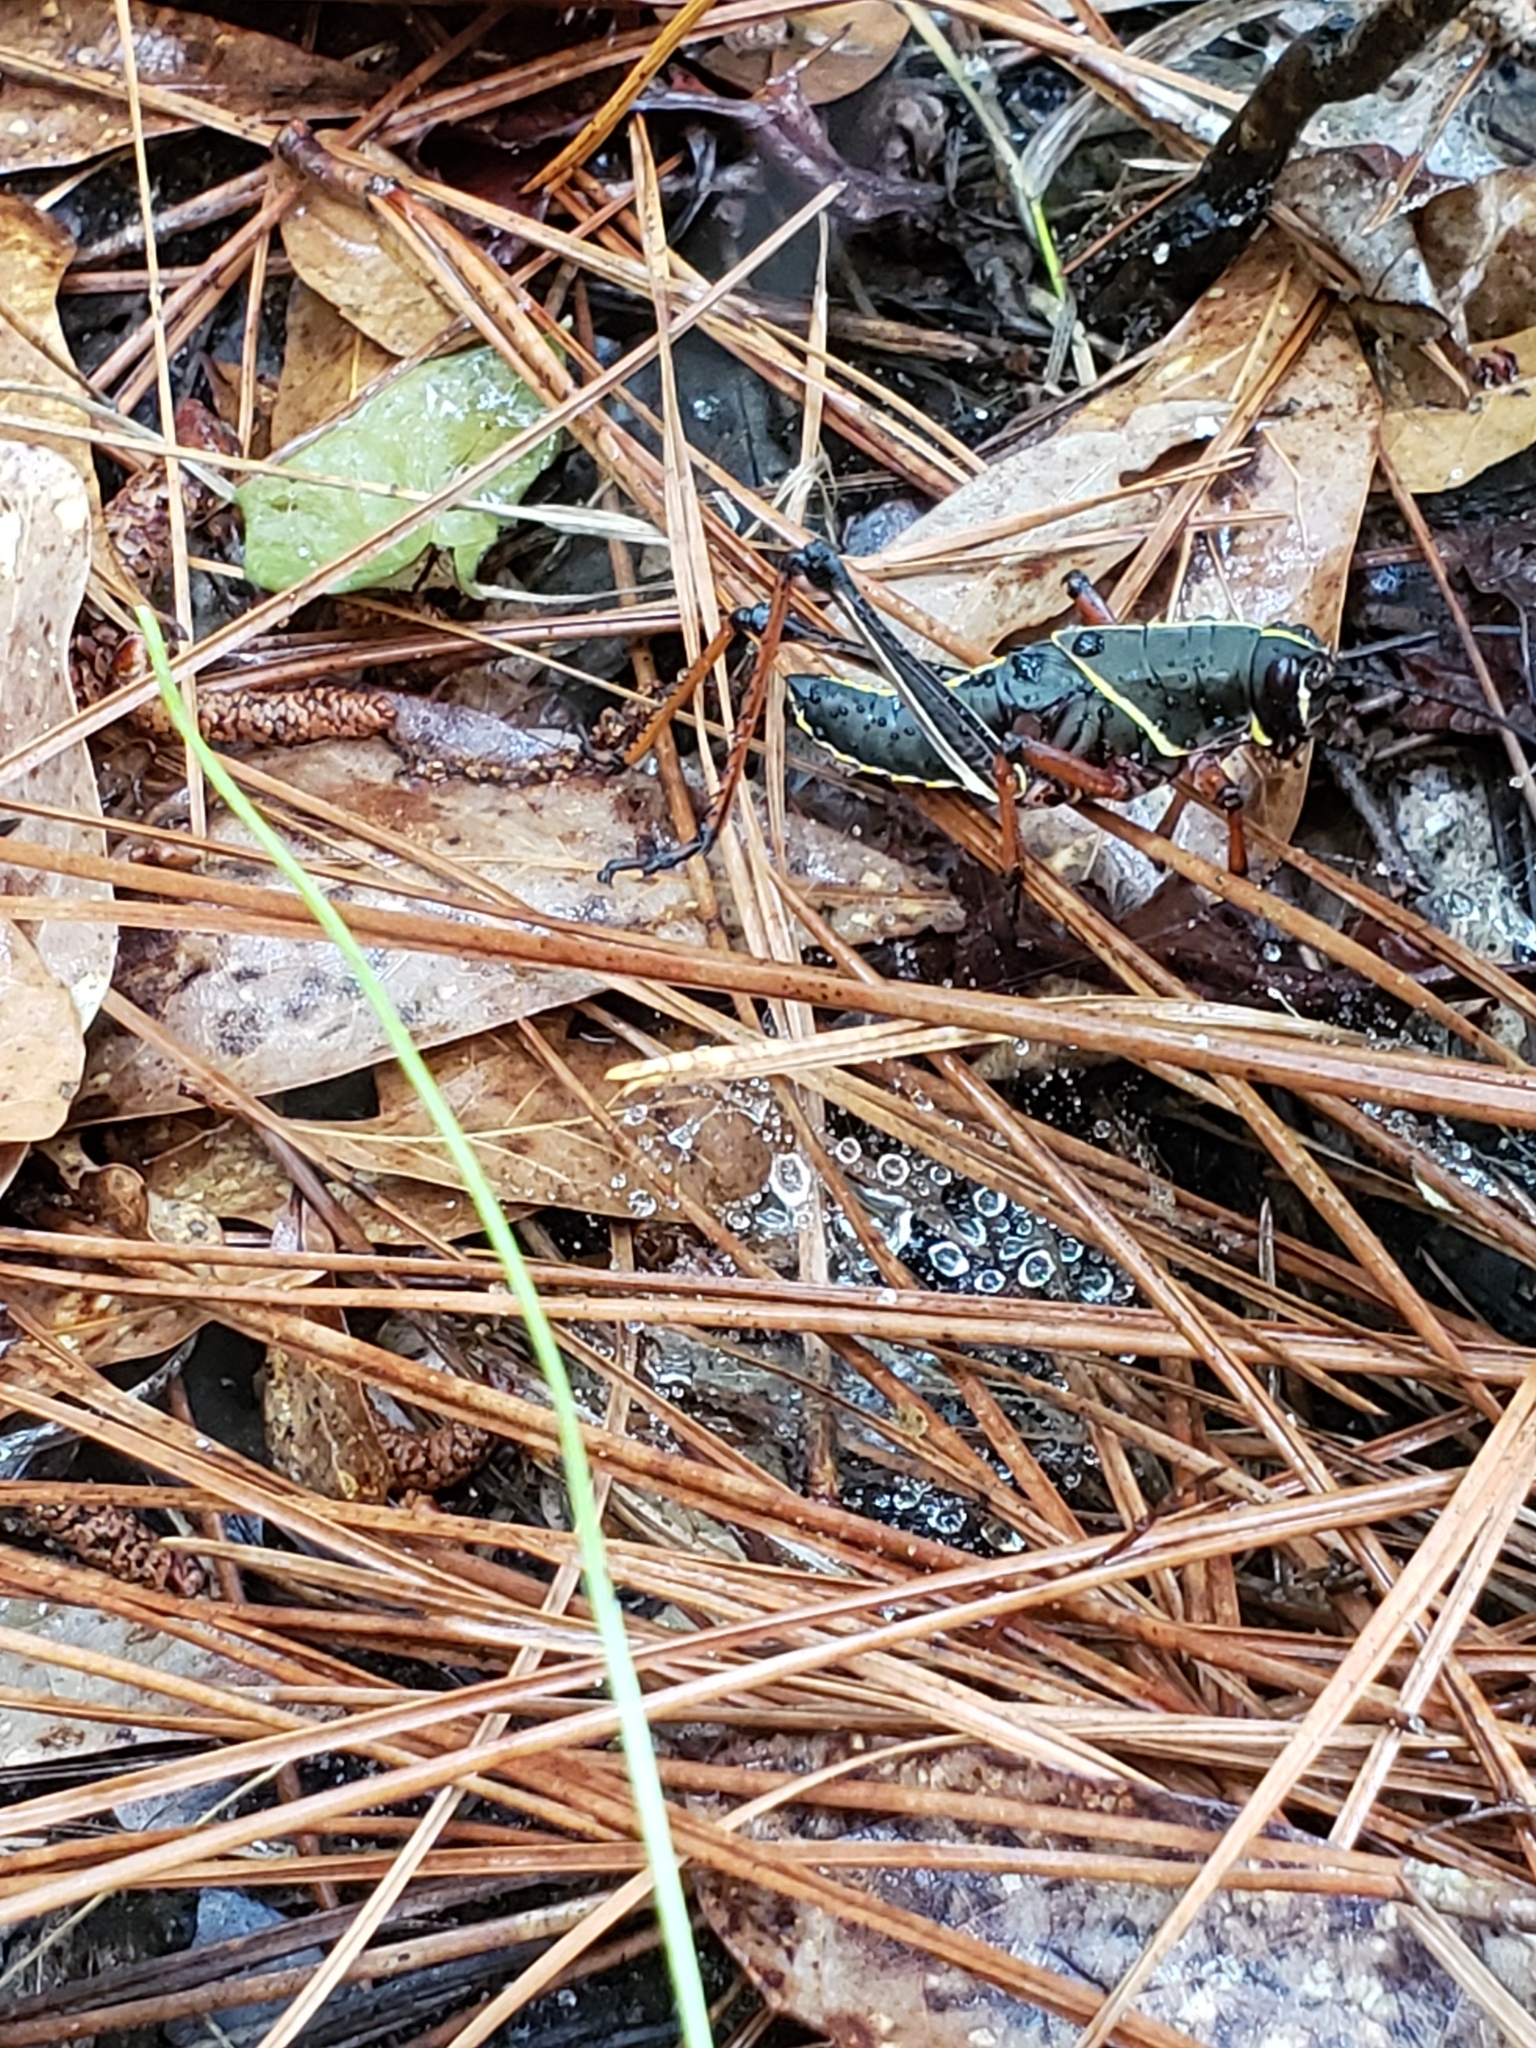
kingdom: Animalia
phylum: Arthropoda
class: Insecta
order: Orthoptera
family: Romaleidae
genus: Romalea
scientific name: Romalea microptera
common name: Eastern lubber grasshopper
